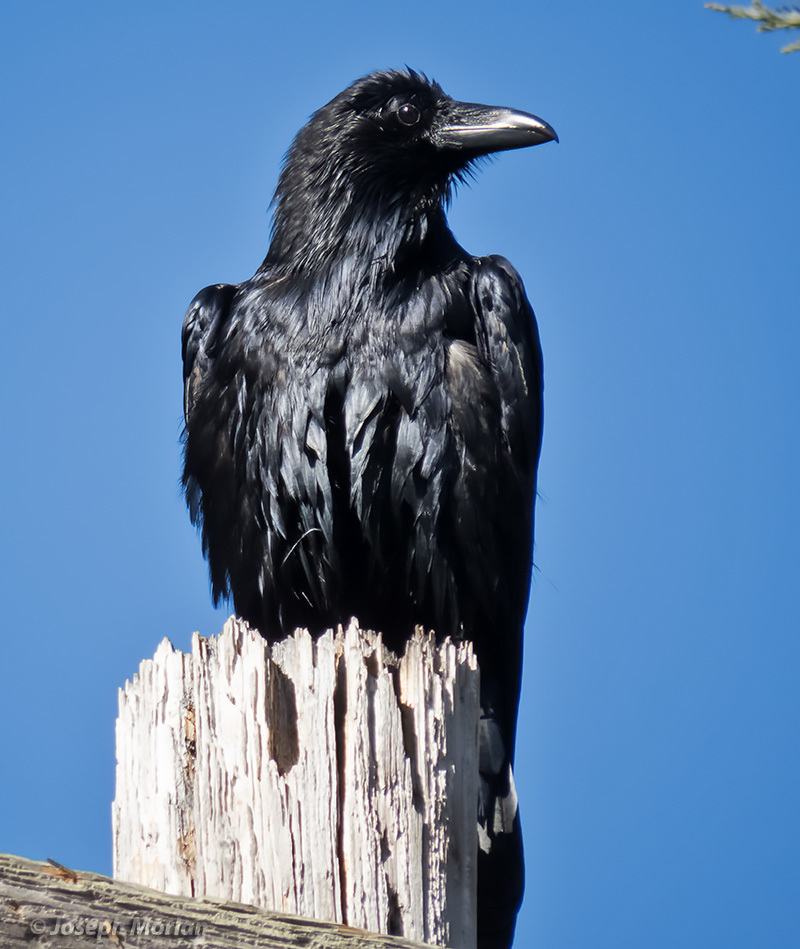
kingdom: Animalia
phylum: Chordata
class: Aves
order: Passeriformes
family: Corvidae
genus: Corvus
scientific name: Corvus corax
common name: Common raven
